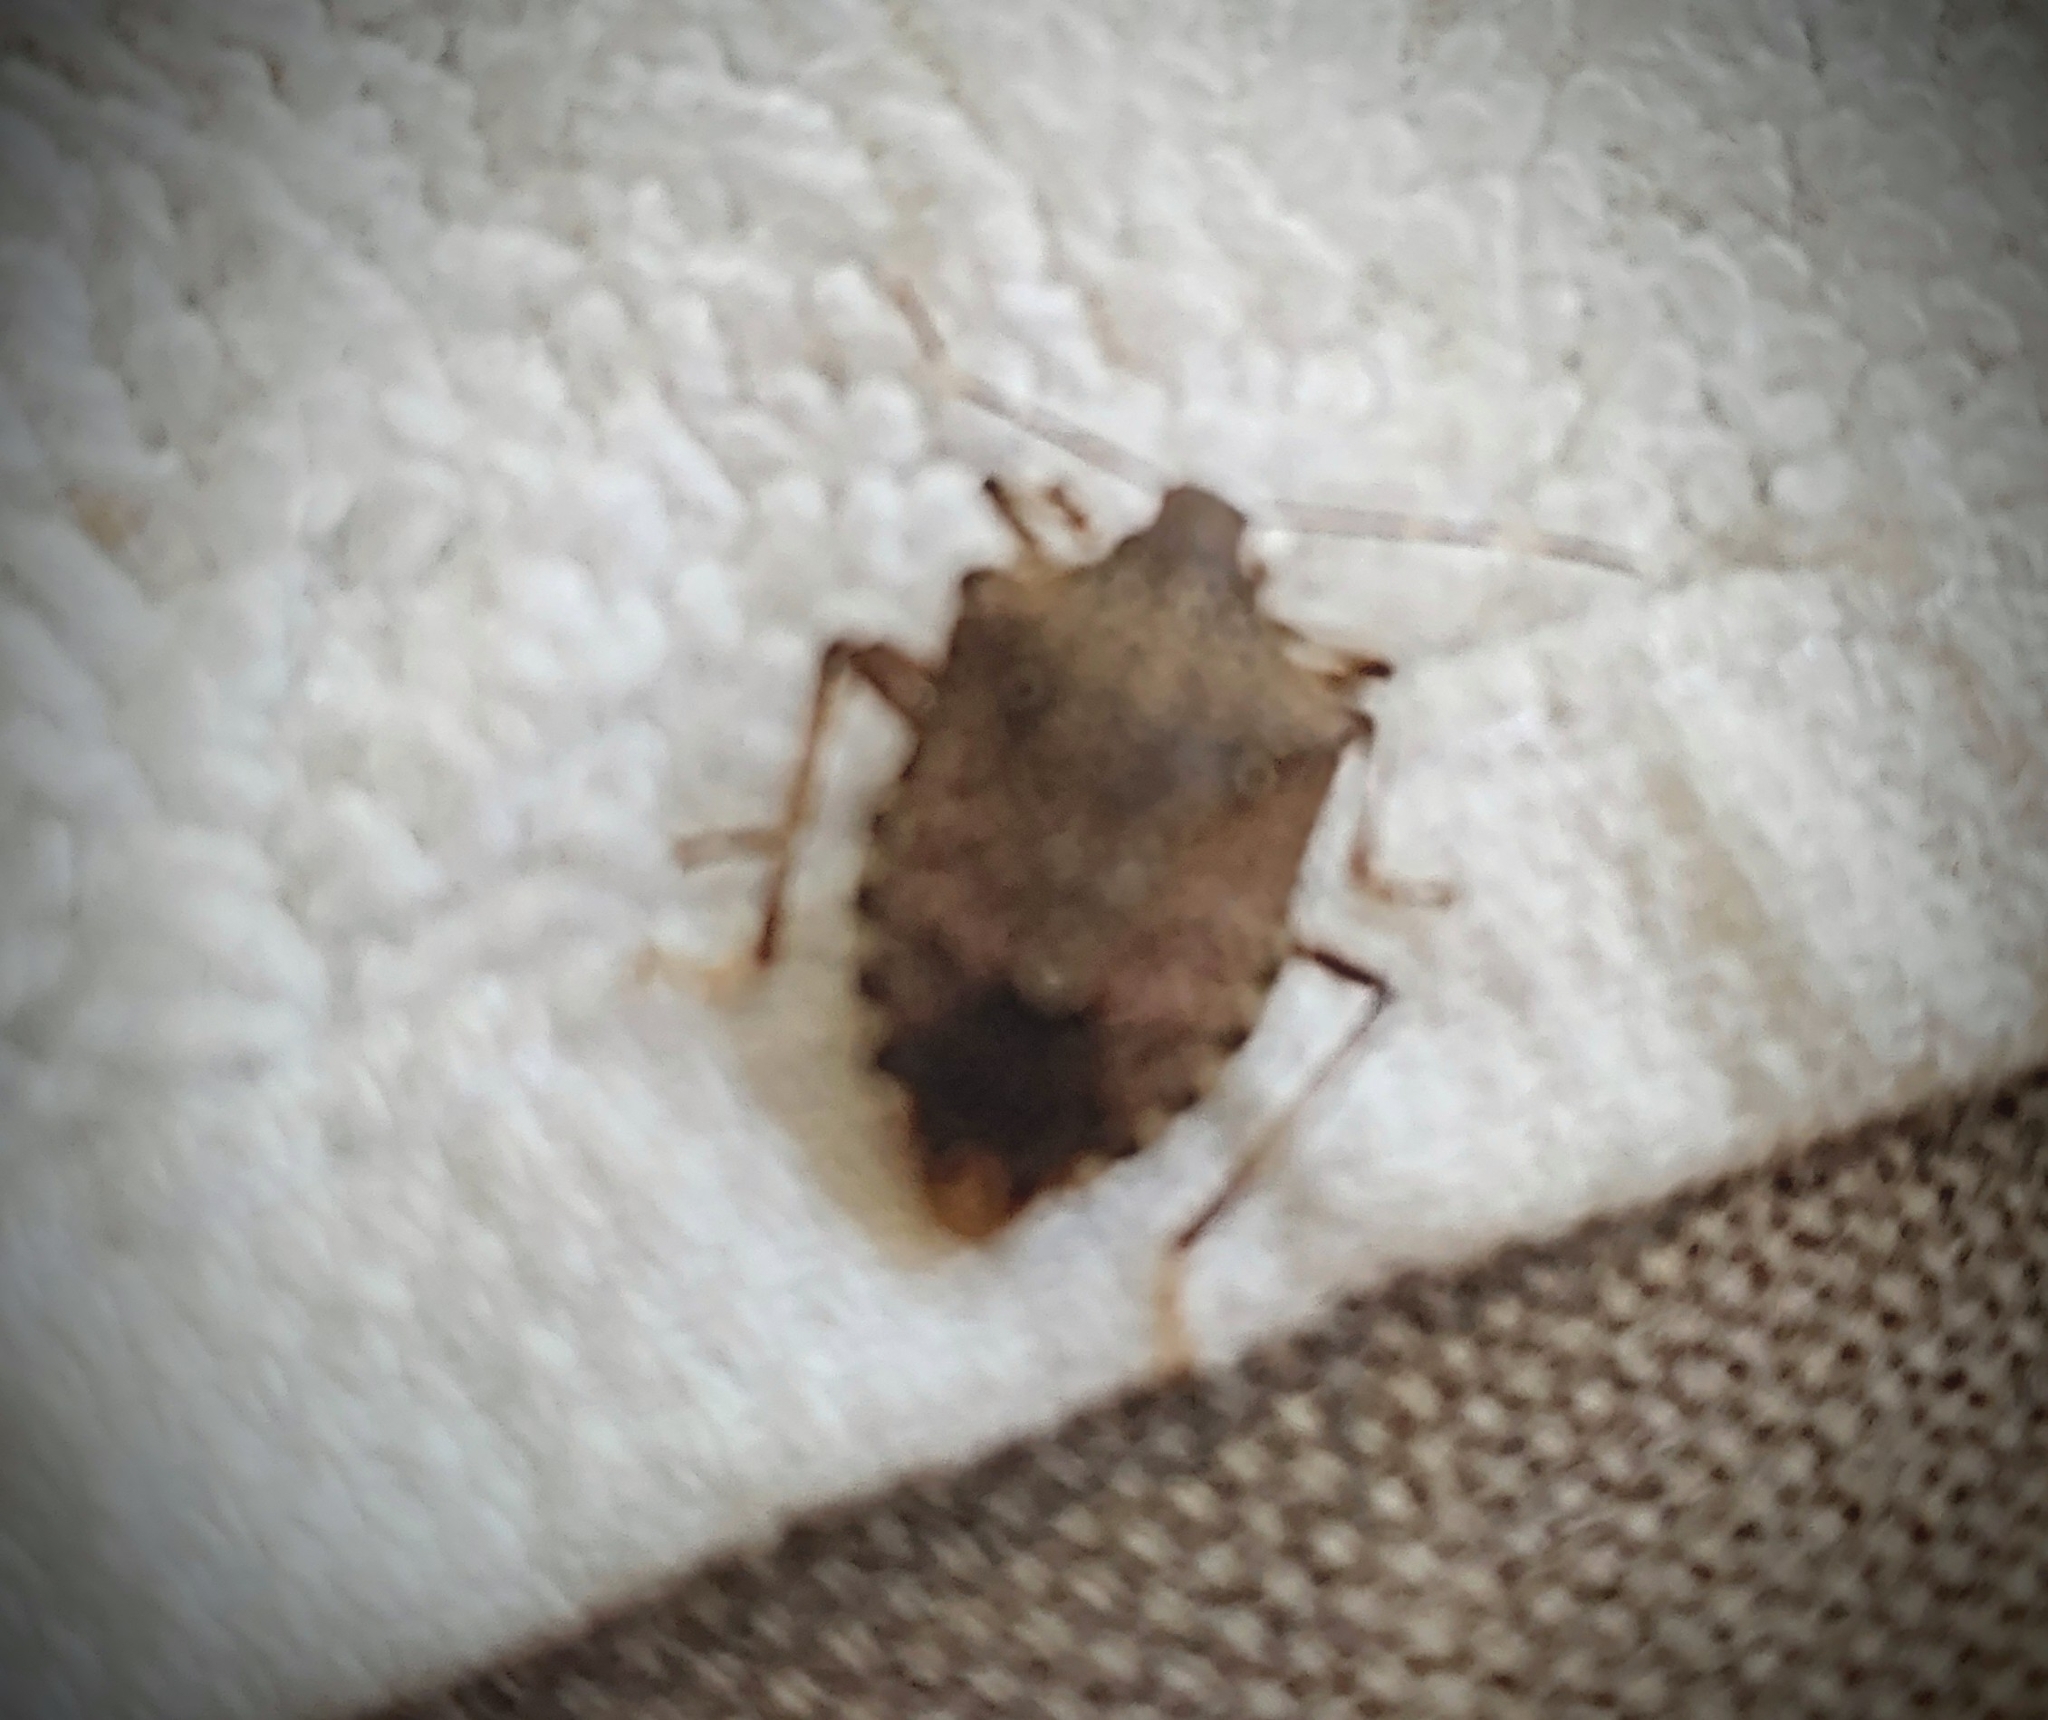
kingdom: Animalia
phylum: Arthropoda
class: Insecta
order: Hemiptera
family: Pentatomidae
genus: Halyomorpha
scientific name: Halyomorpha halys
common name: Brown marmorated stink bug
